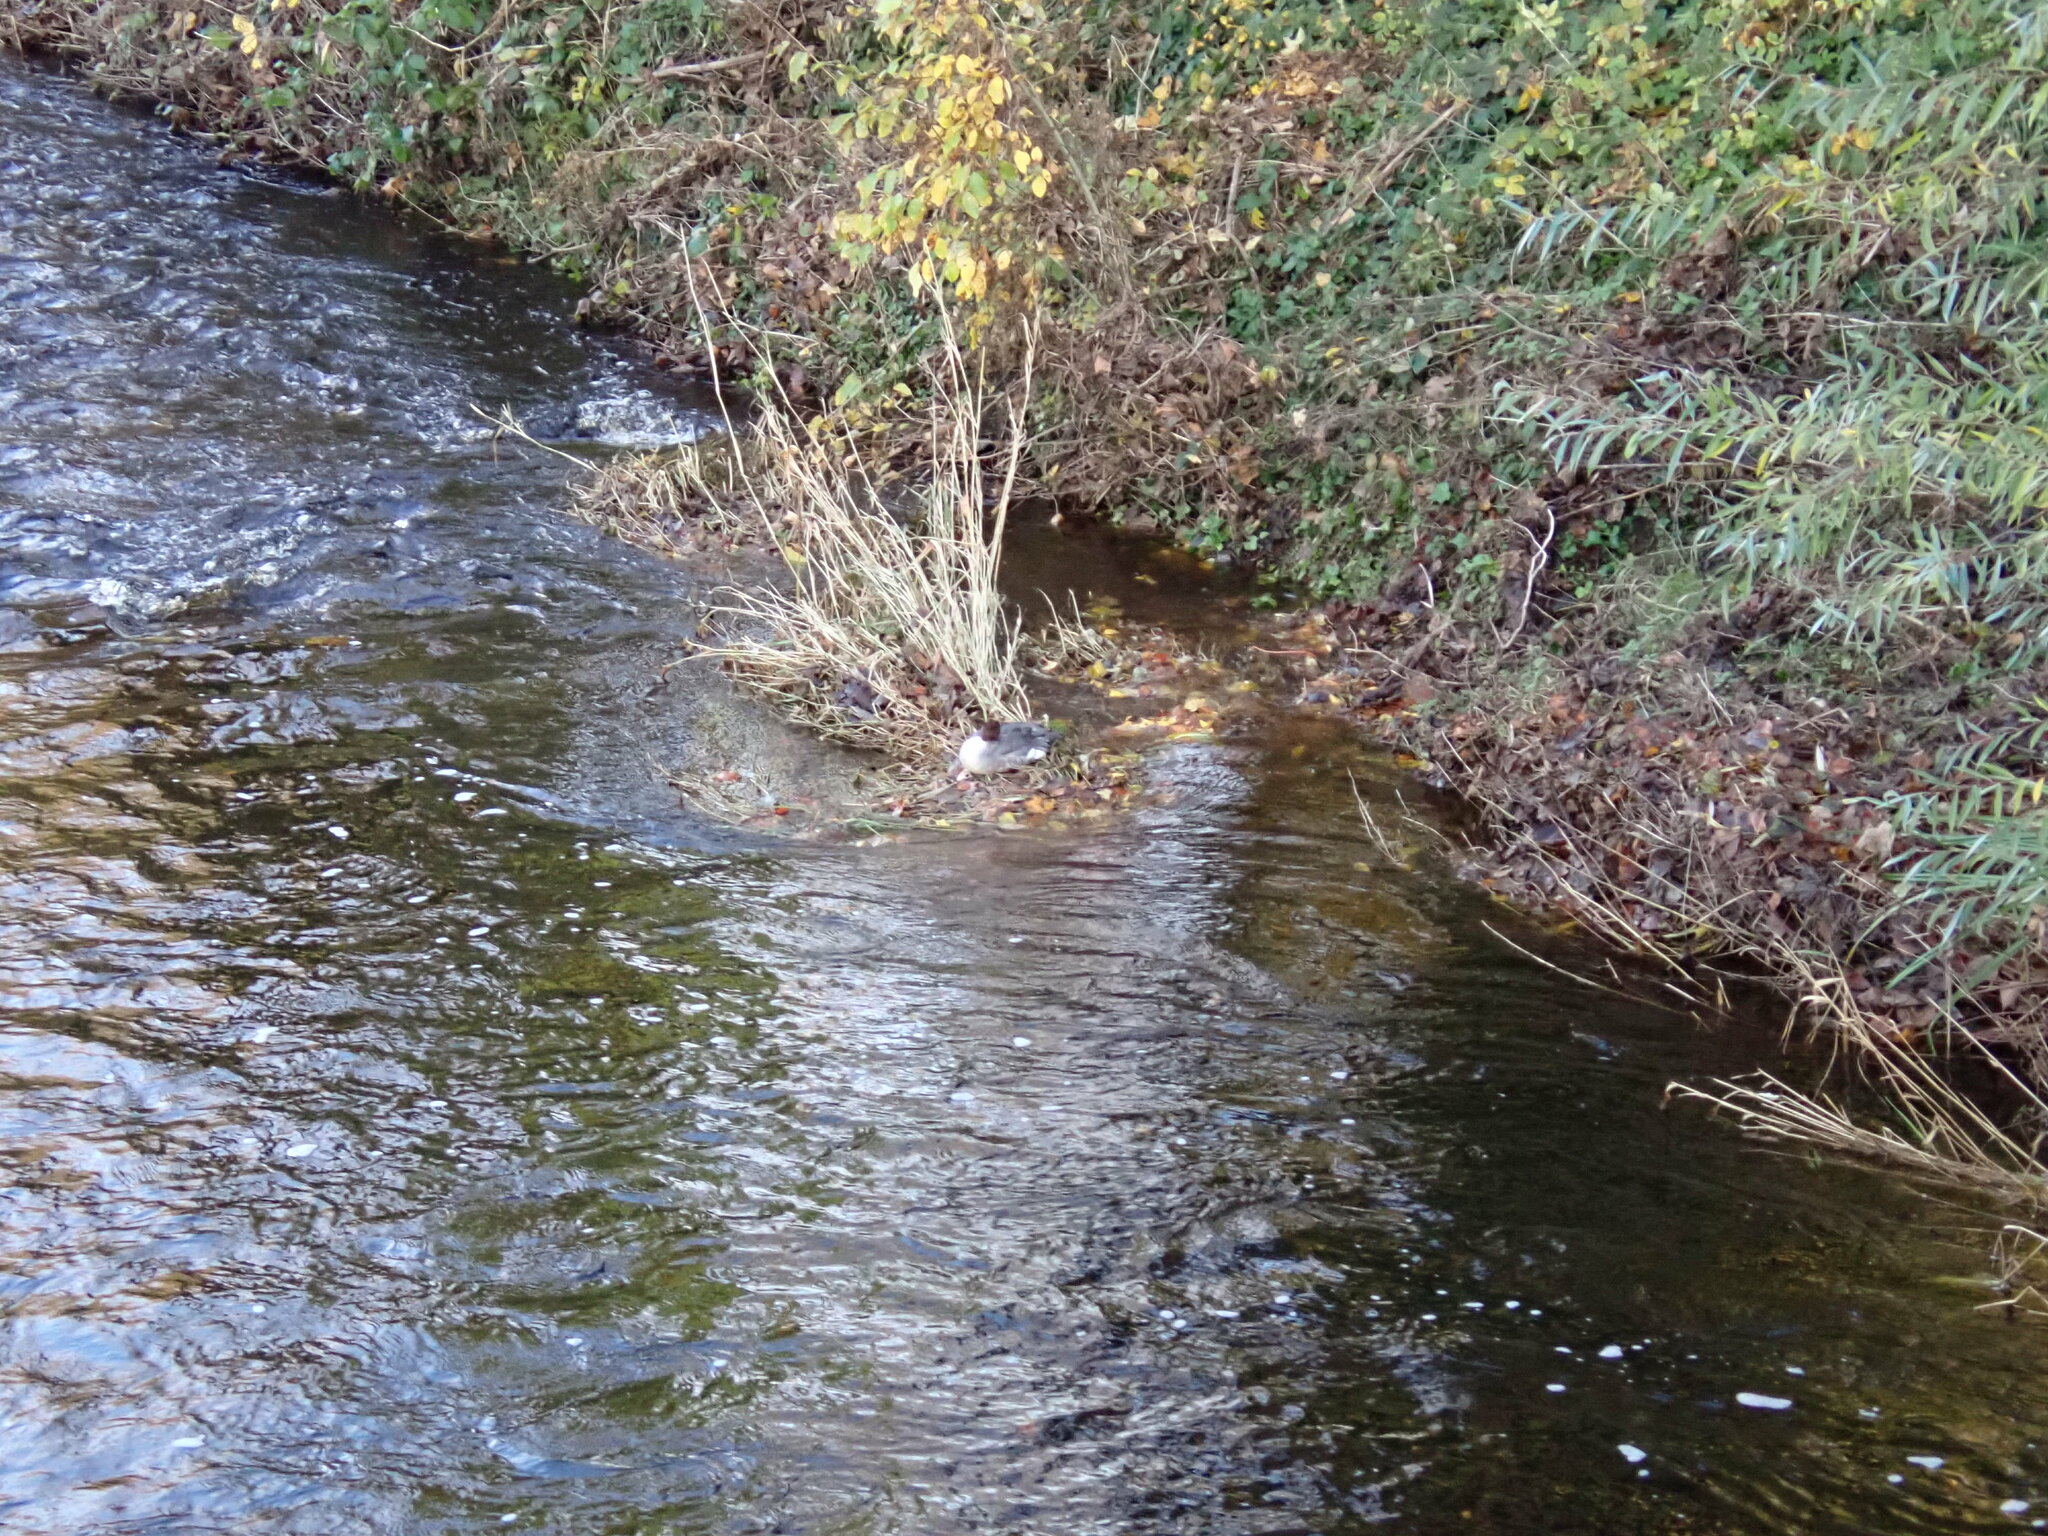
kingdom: Animalia
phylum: Chordata
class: Aves
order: Anseriformes
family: Anatidae
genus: Mergus
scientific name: Mergus merganser
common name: Common merganser
